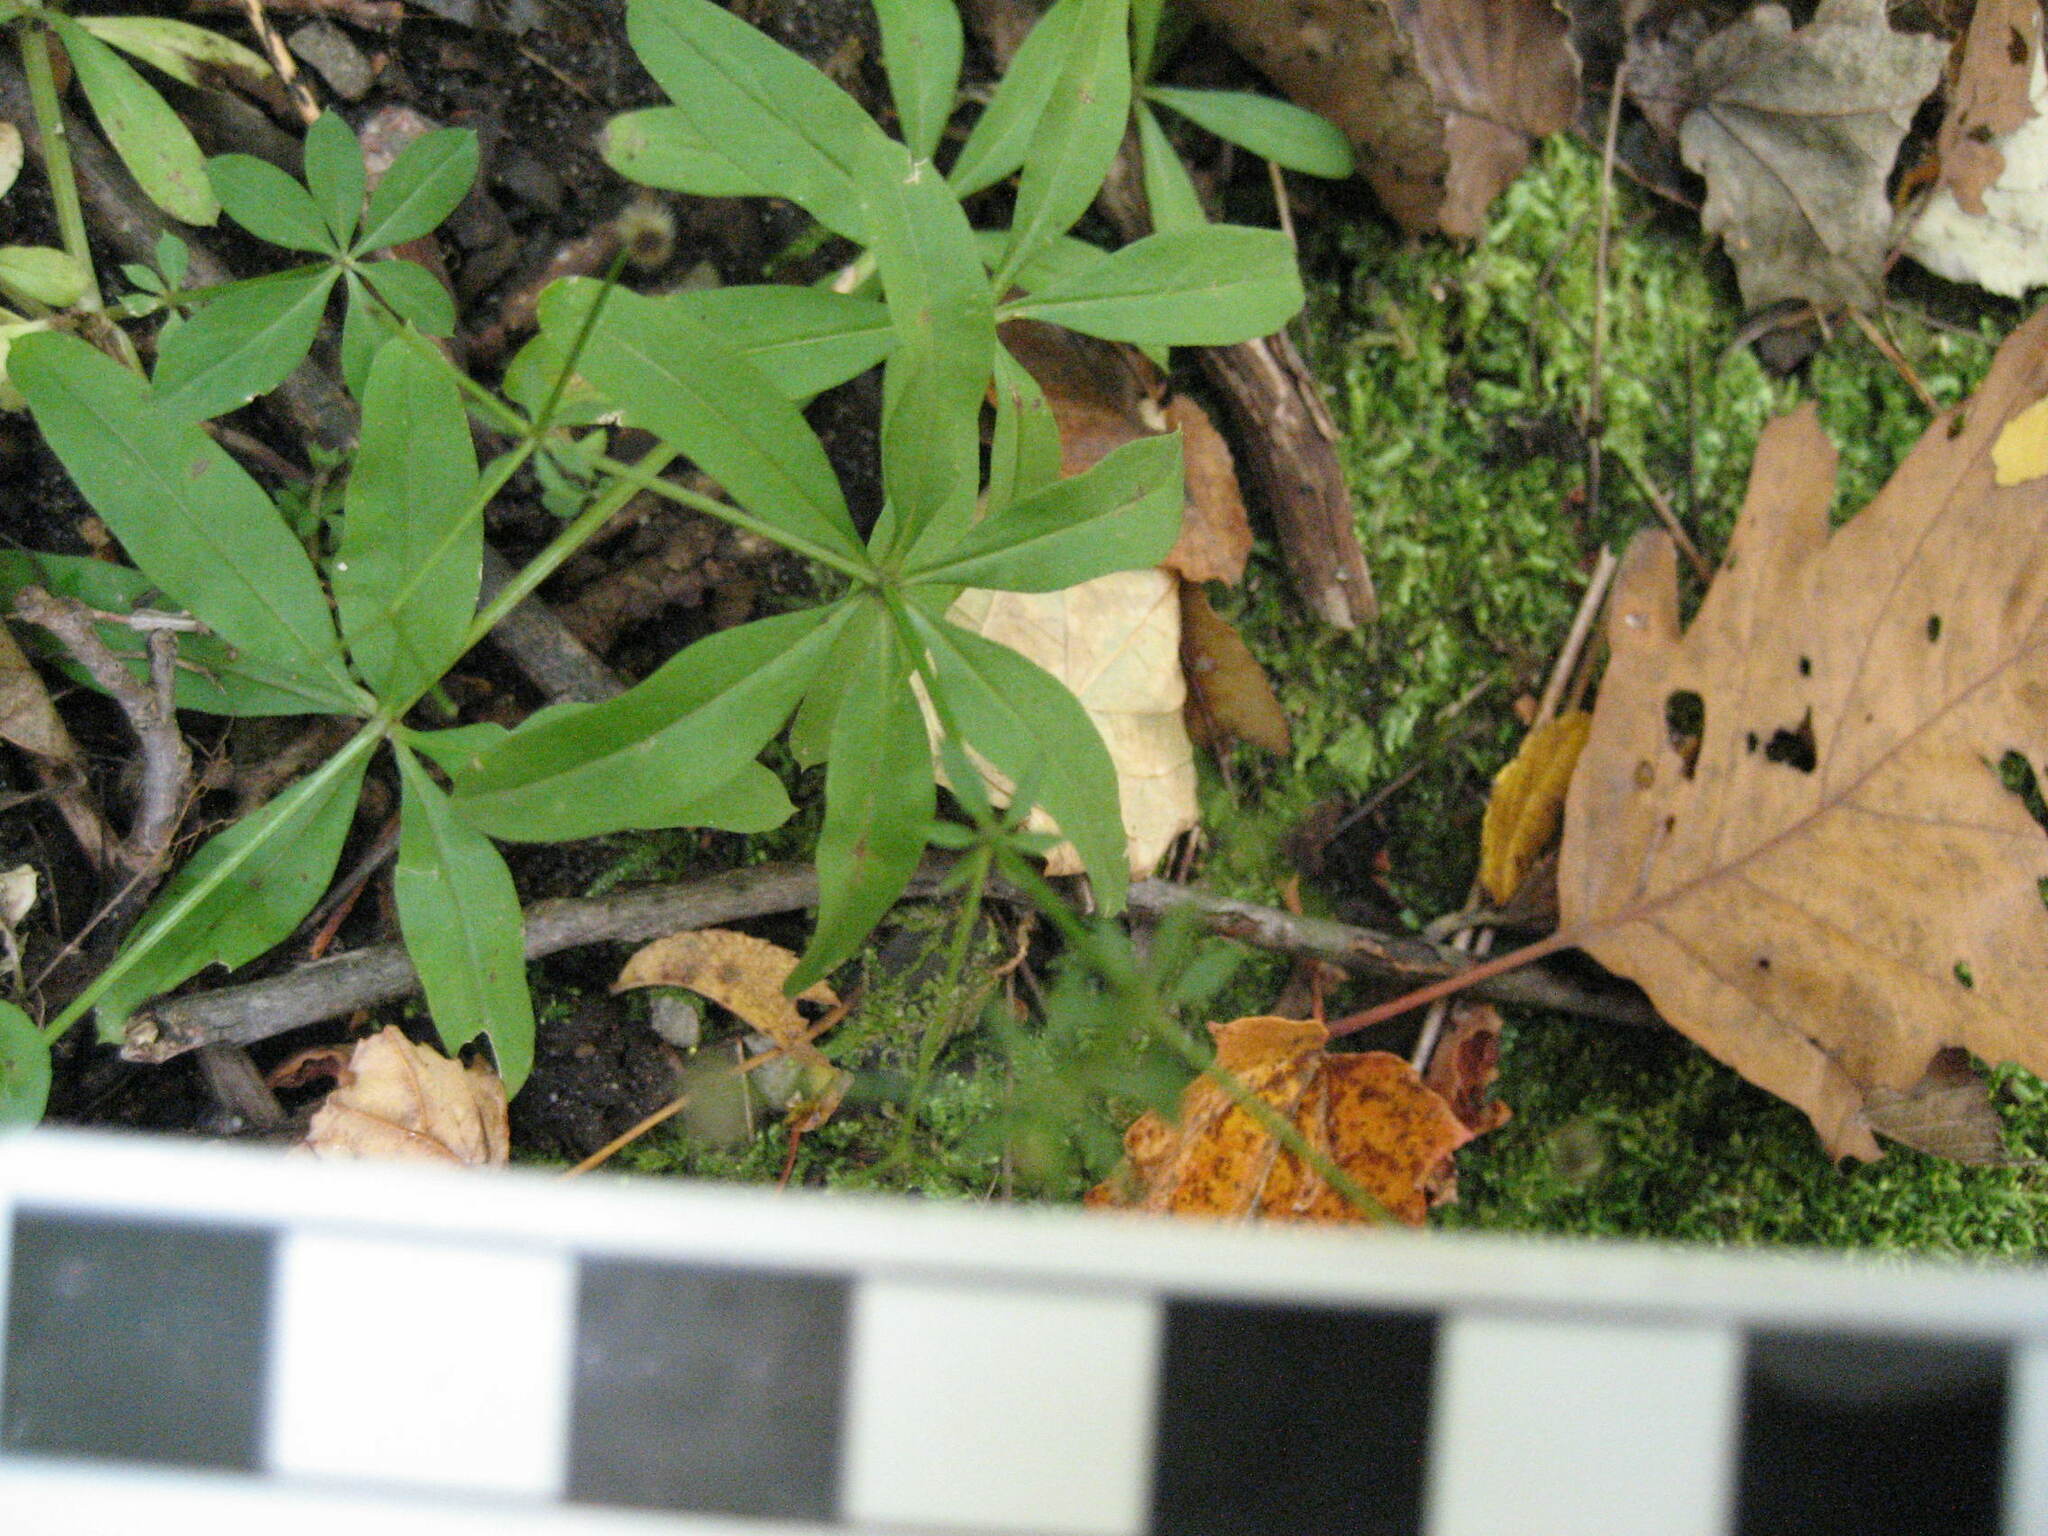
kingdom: Plantae
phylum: Tracheophyta
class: Magnoliopsida
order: Gentianales
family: Rubiaceae
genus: Galium
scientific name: Galium triflorum
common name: Fragrant bedstraw
